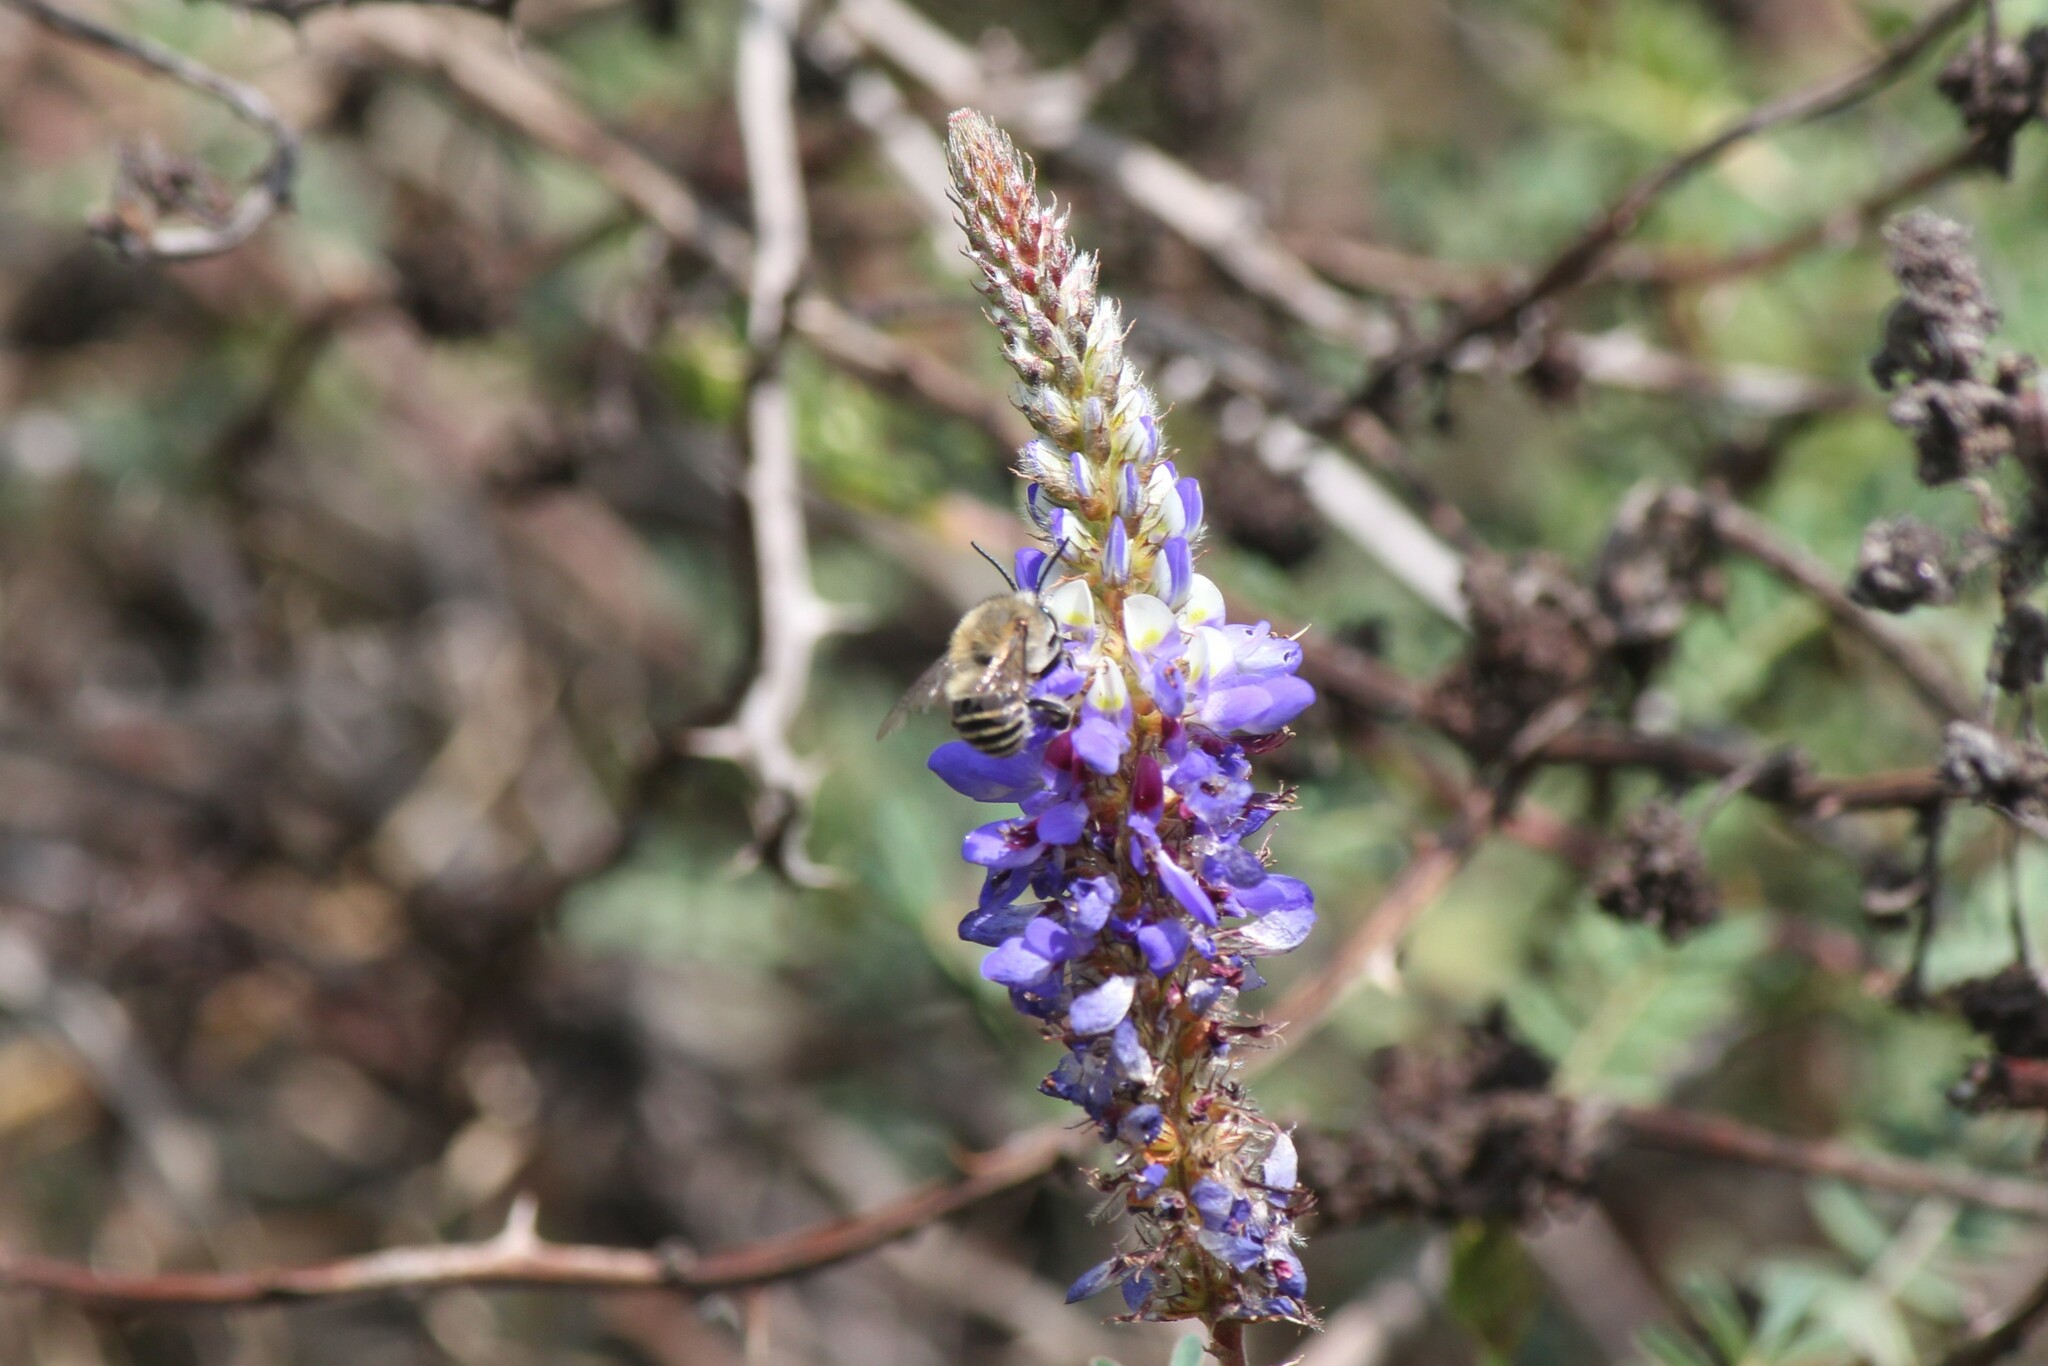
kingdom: Animalia
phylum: Arthropoda
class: Insecta
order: Hymenoptera
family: Apidae
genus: Anthophora
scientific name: Anthophora pilifrons
